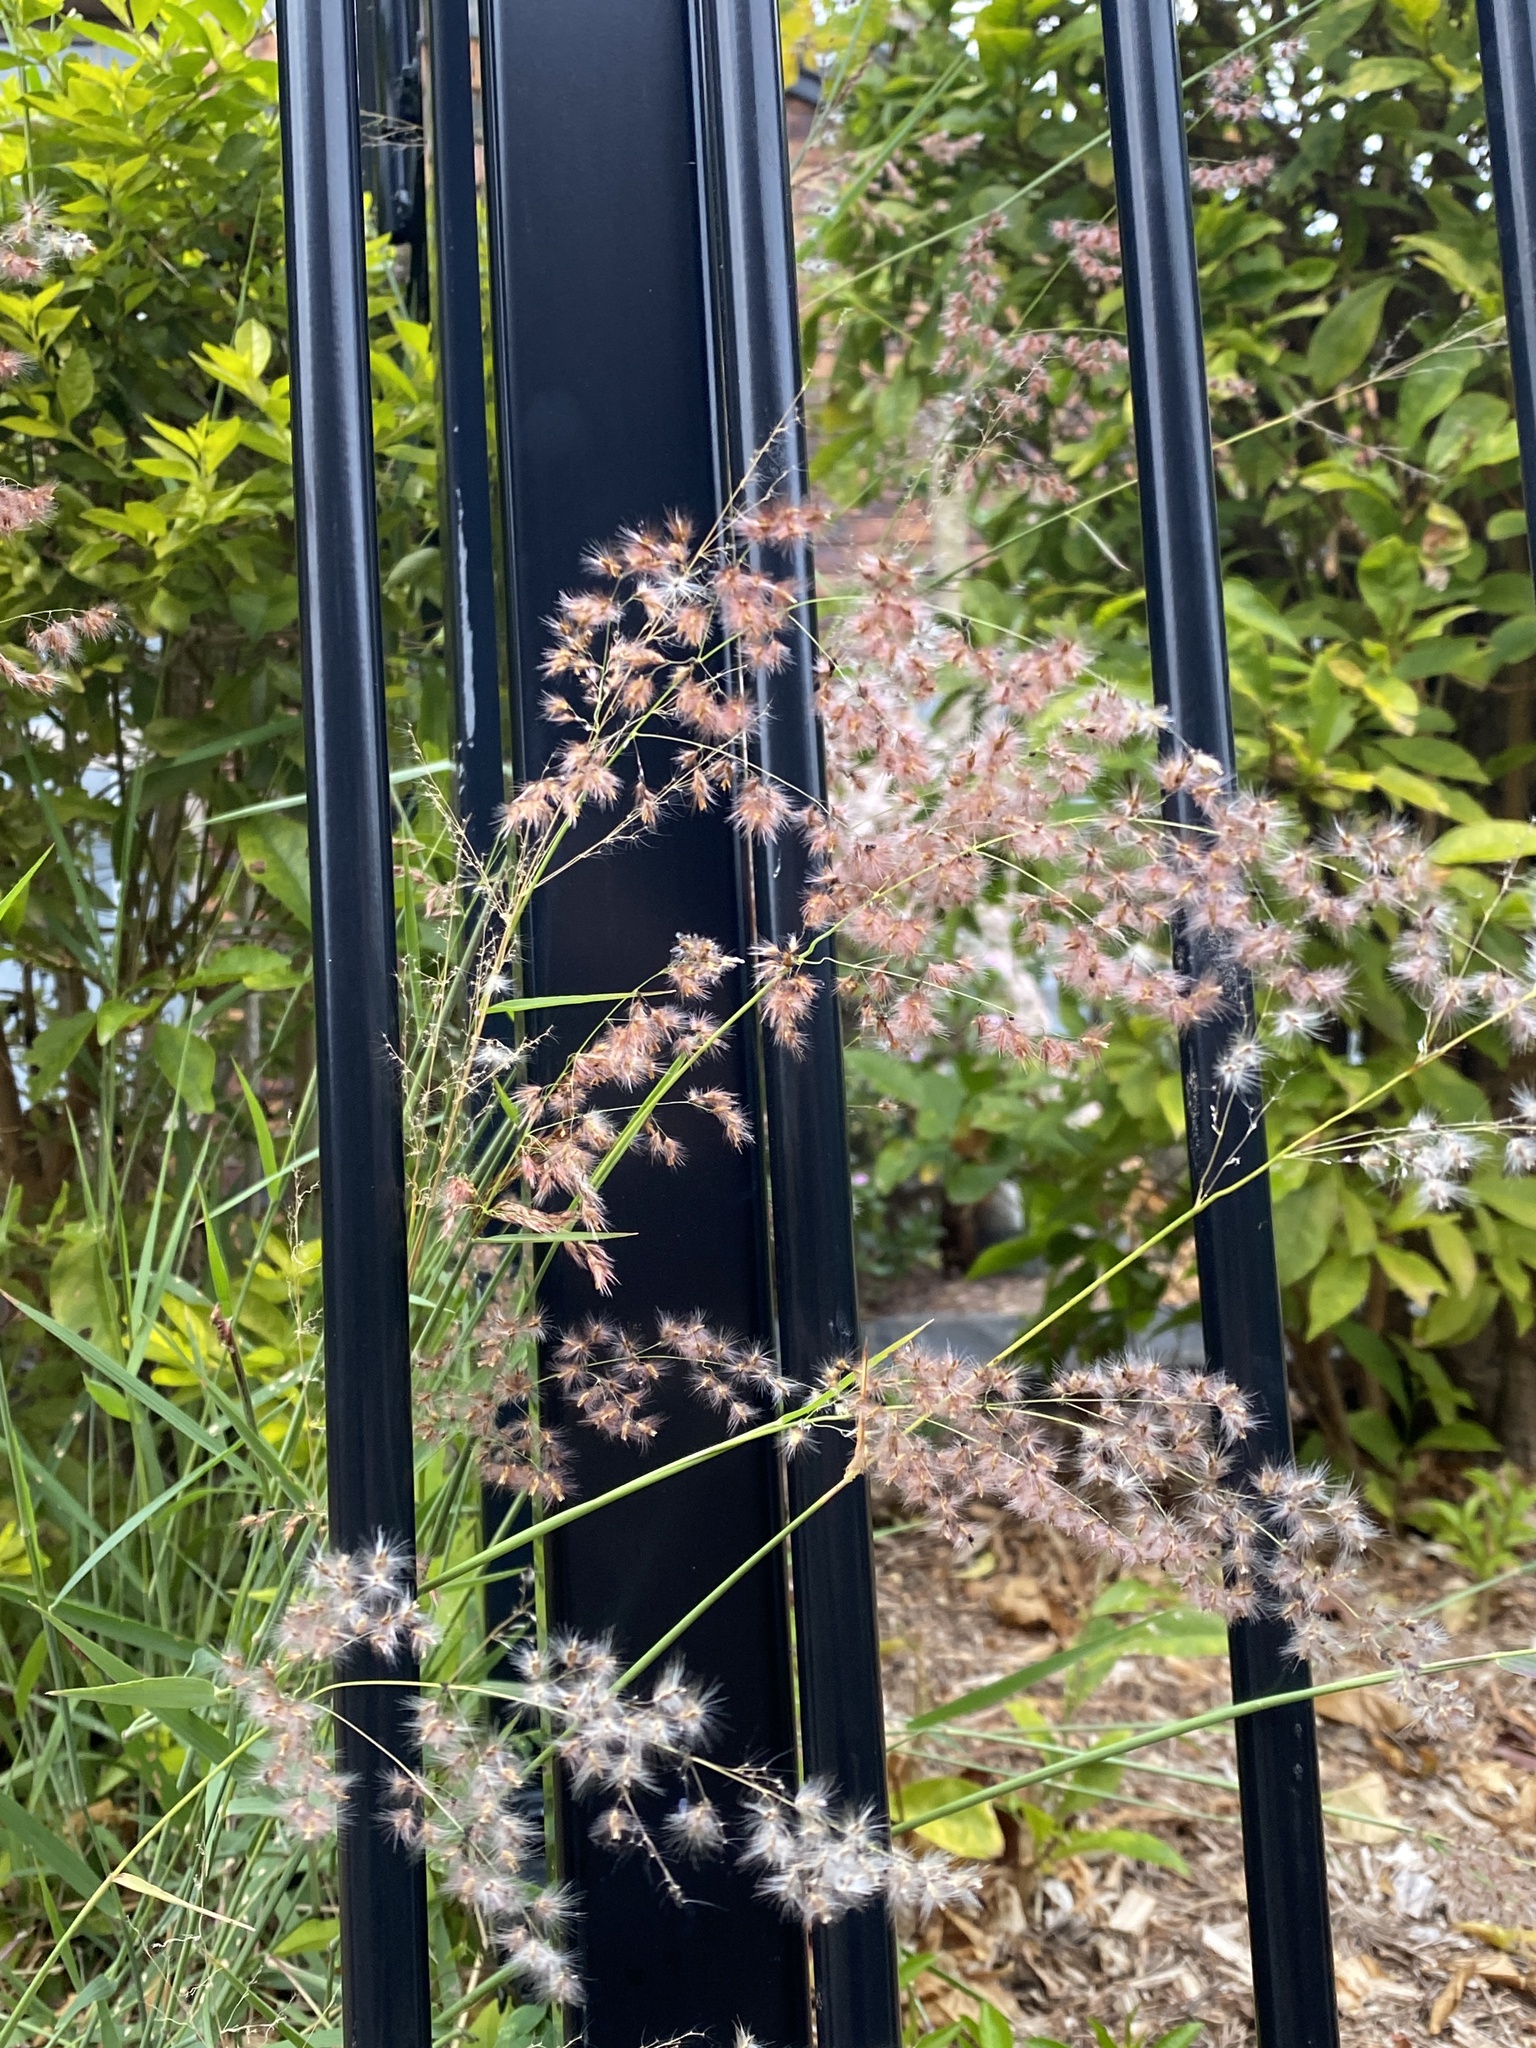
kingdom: Plantae
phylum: Tracheophyta
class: Liliopsida
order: Poales
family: Poaceae
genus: Melinis
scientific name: Melinis repens
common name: Rose natal grass
